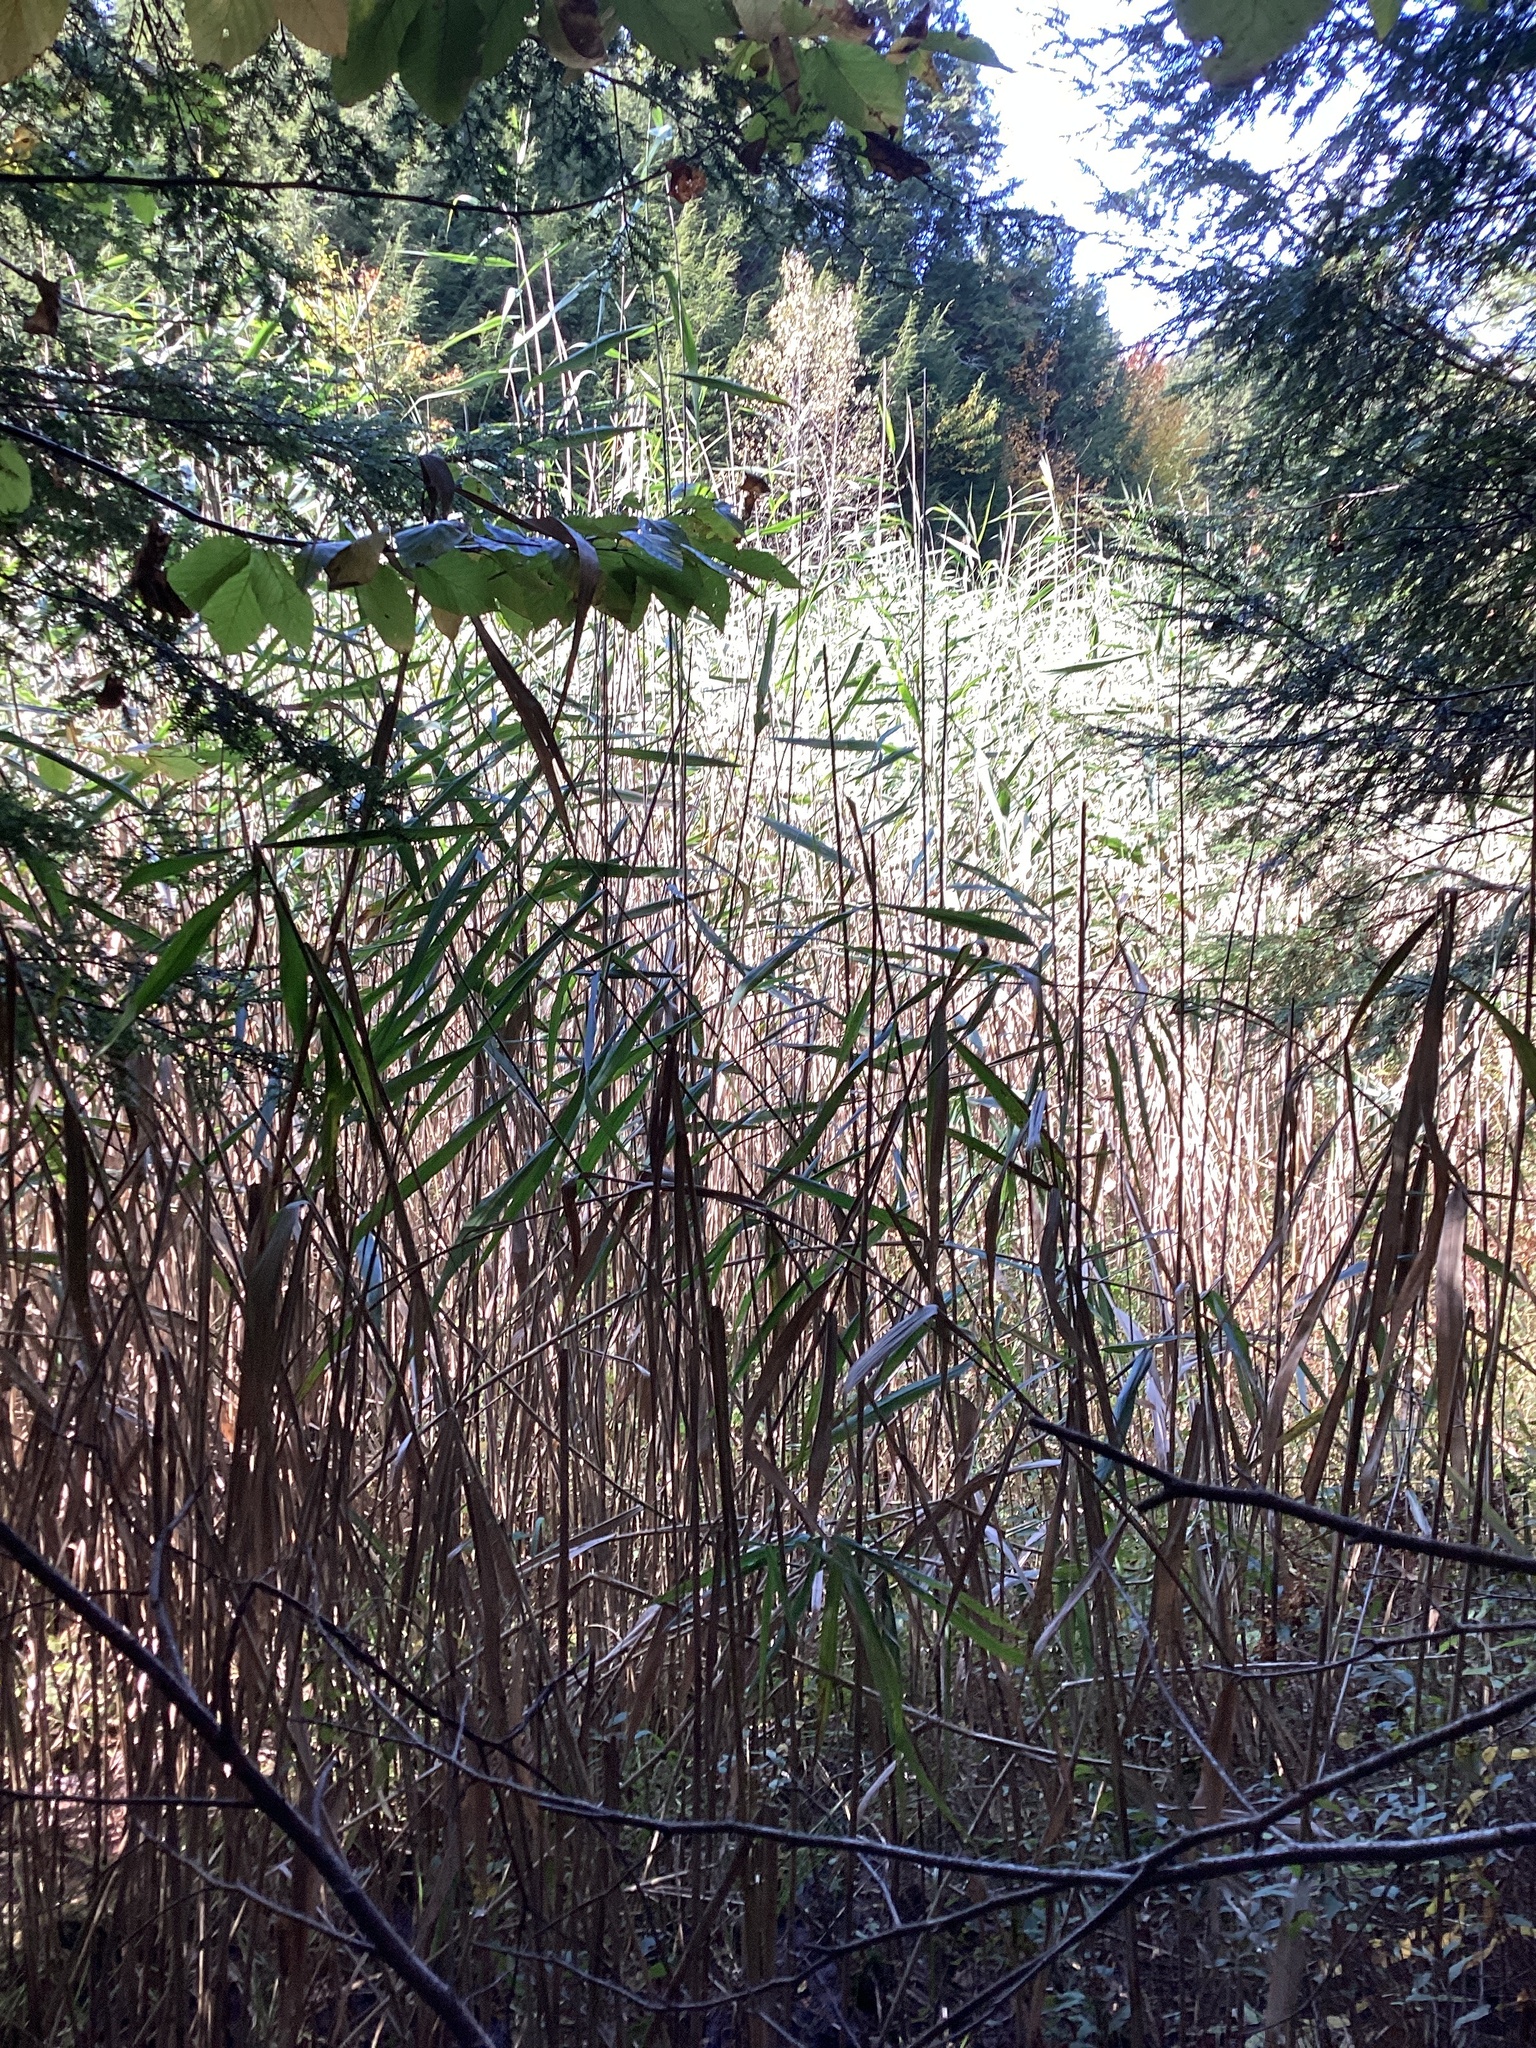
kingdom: Plantae
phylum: Tracheophyta
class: Liliopsida
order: Poales
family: Poaceae
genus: Phragmites
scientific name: Phragmites australis
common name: Common reed
